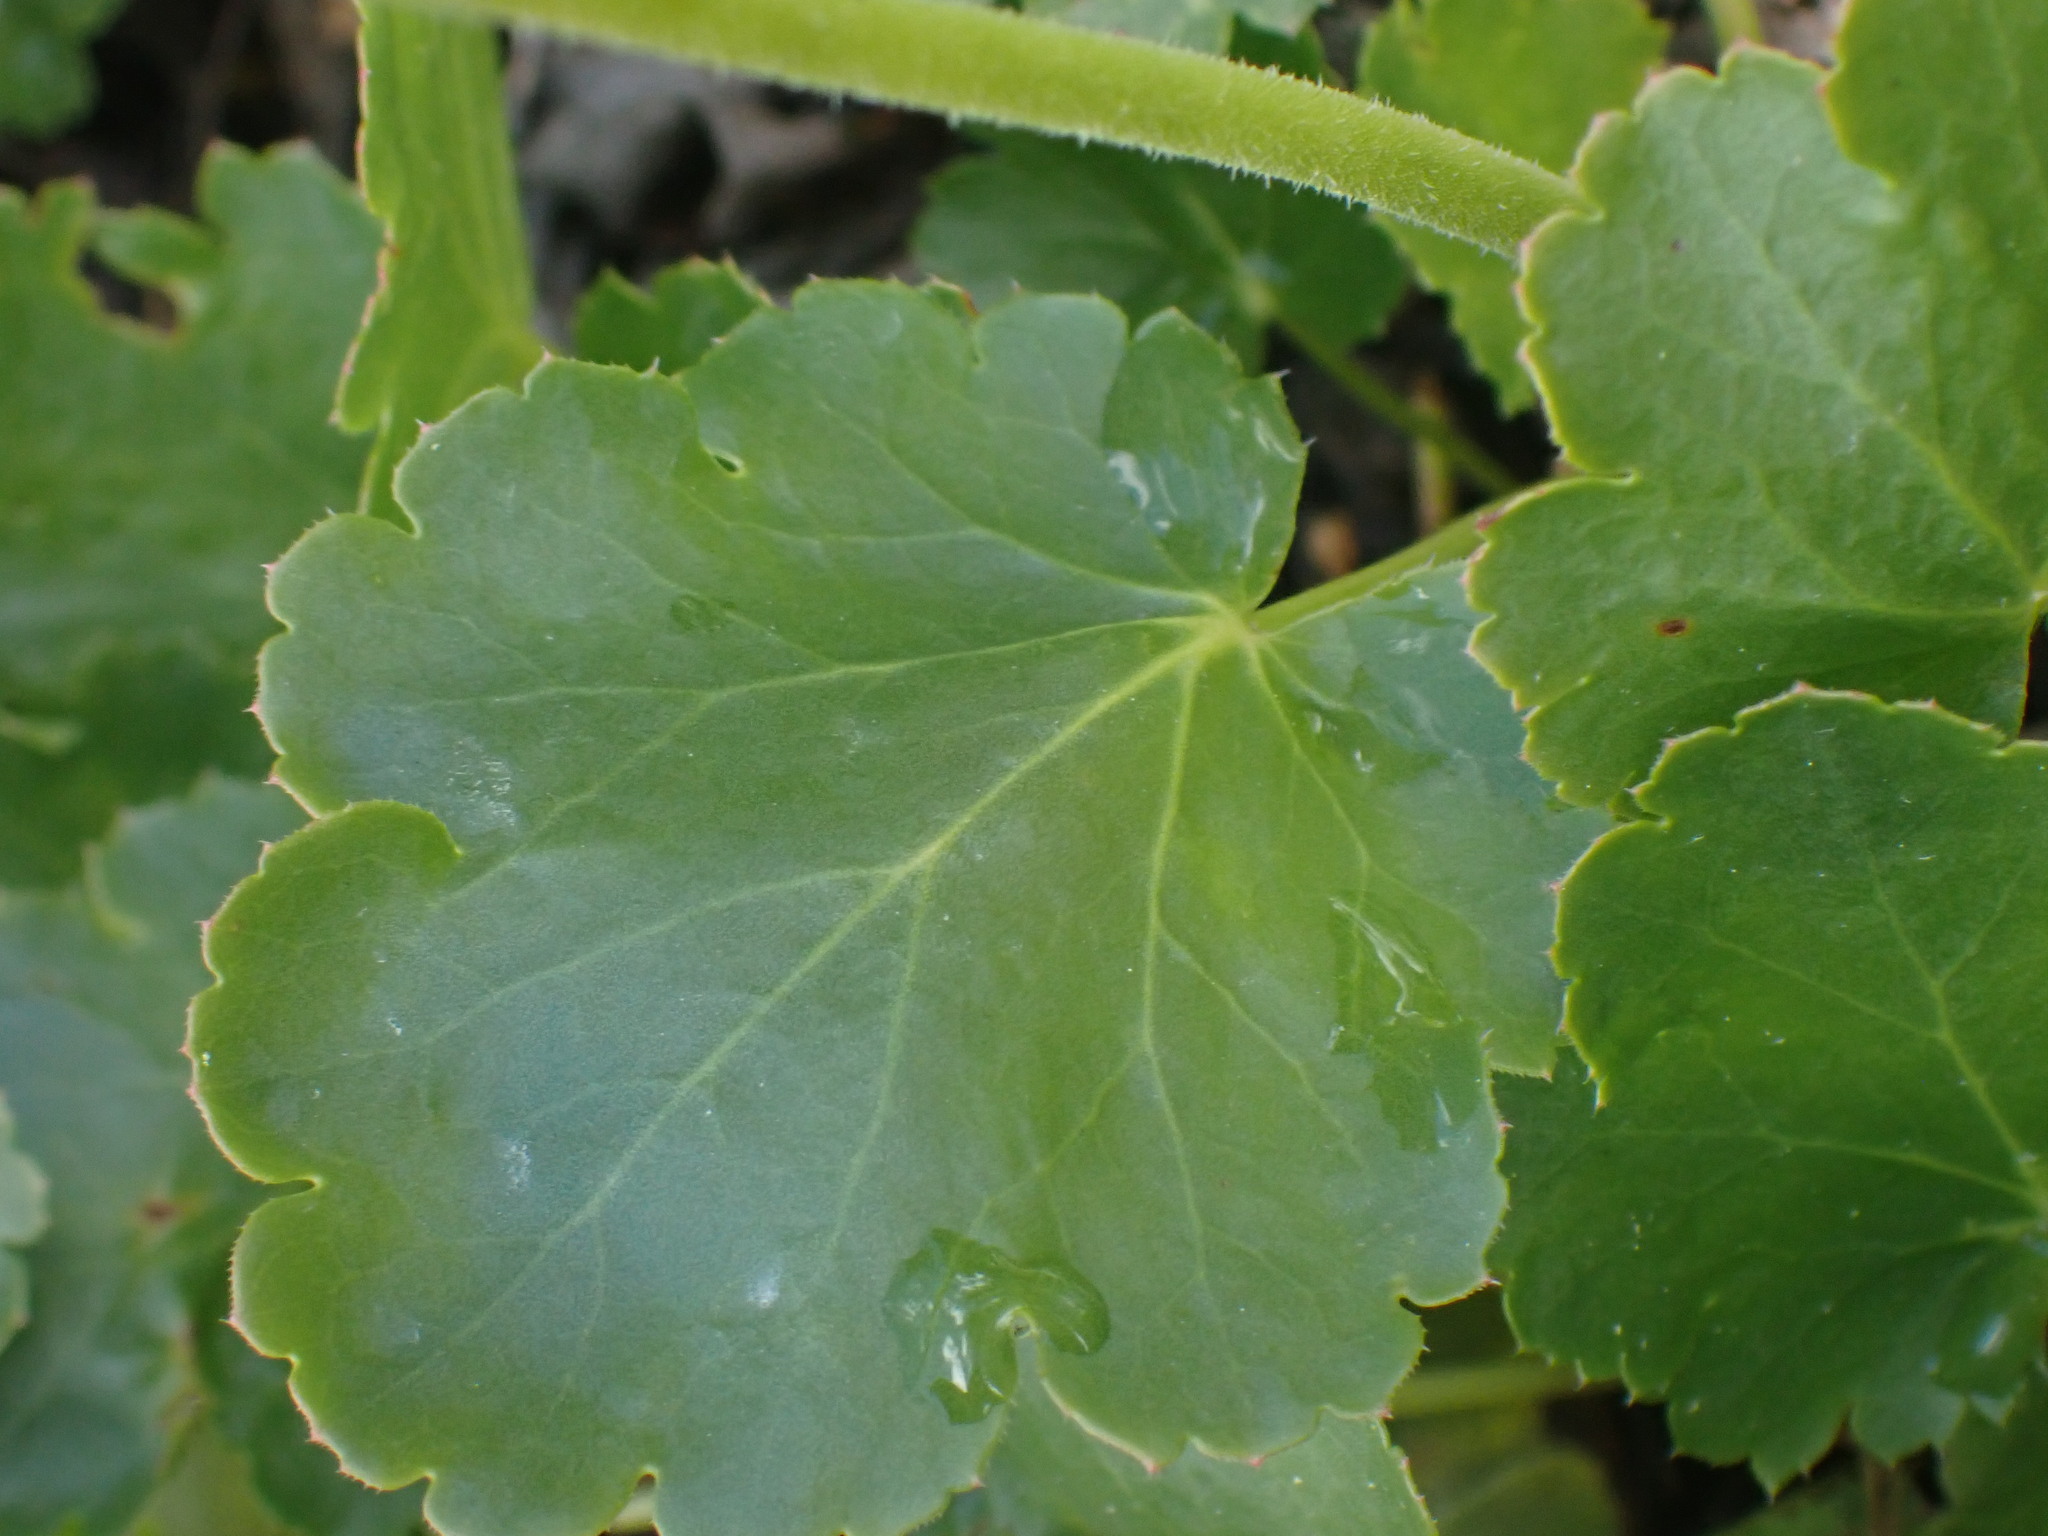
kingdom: Plantae
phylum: Tracheophyta
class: Magnoliopsida
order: Saxifragales
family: Saxifragaceae
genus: Heuchera
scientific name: Heuchera cylindrica
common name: Mat alumroot
